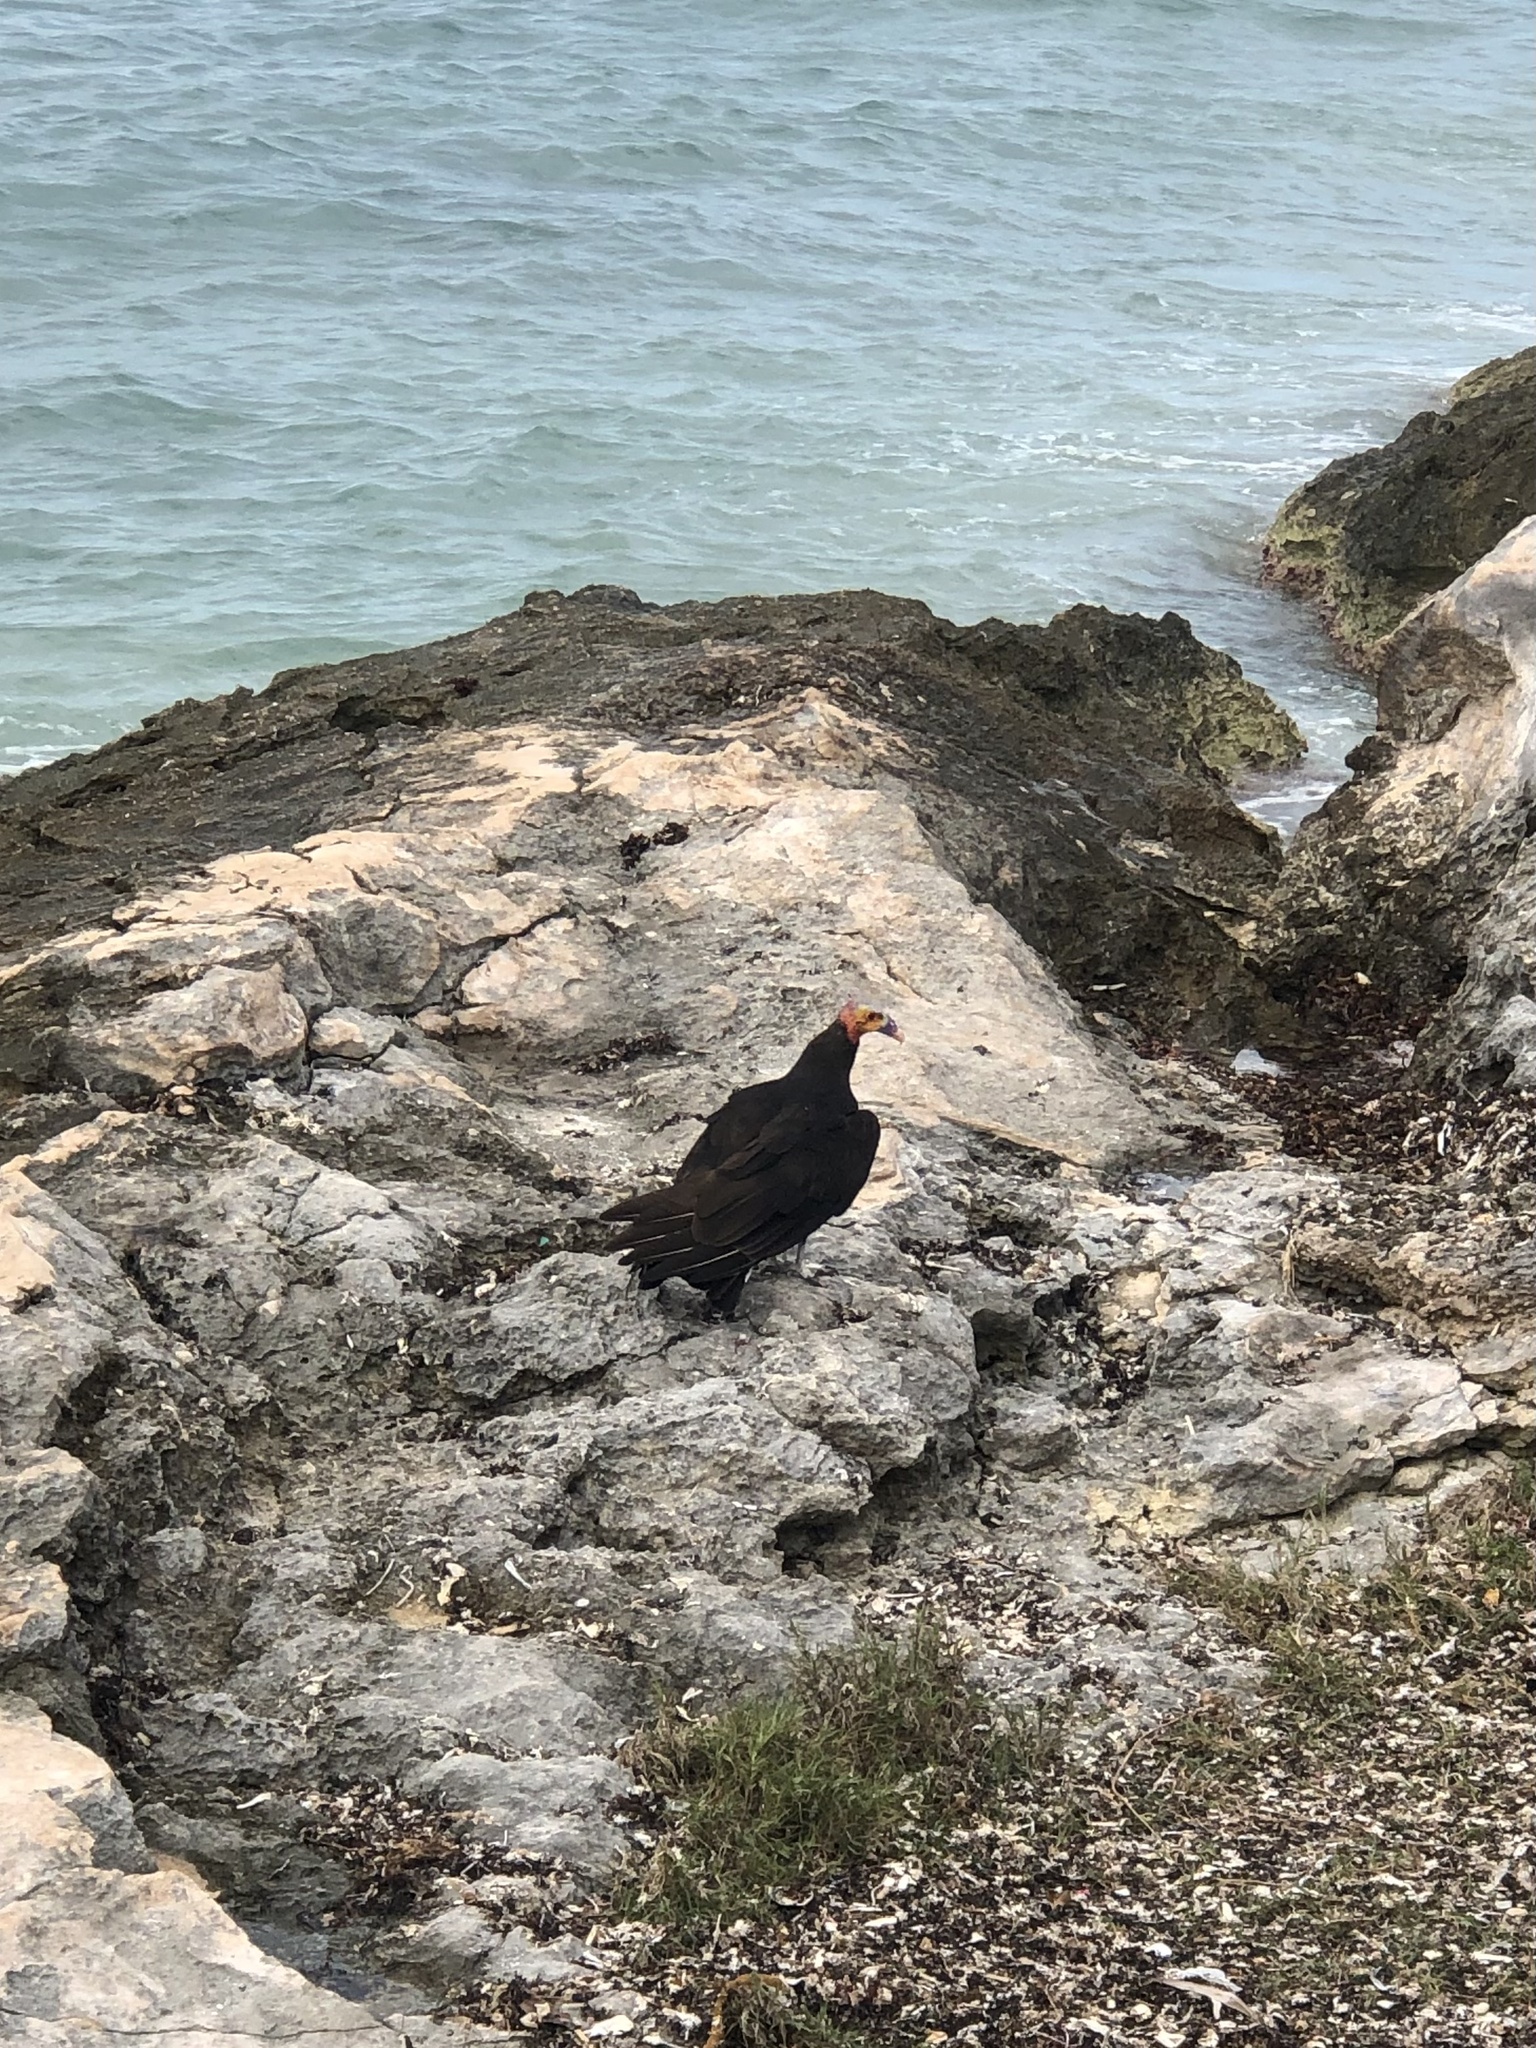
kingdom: Animalia
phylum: Chordata
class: Aves
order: Accipitriformes
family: Cathartidae
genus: Cathartes
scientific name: Cathartes aura
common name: Turkey vulture
